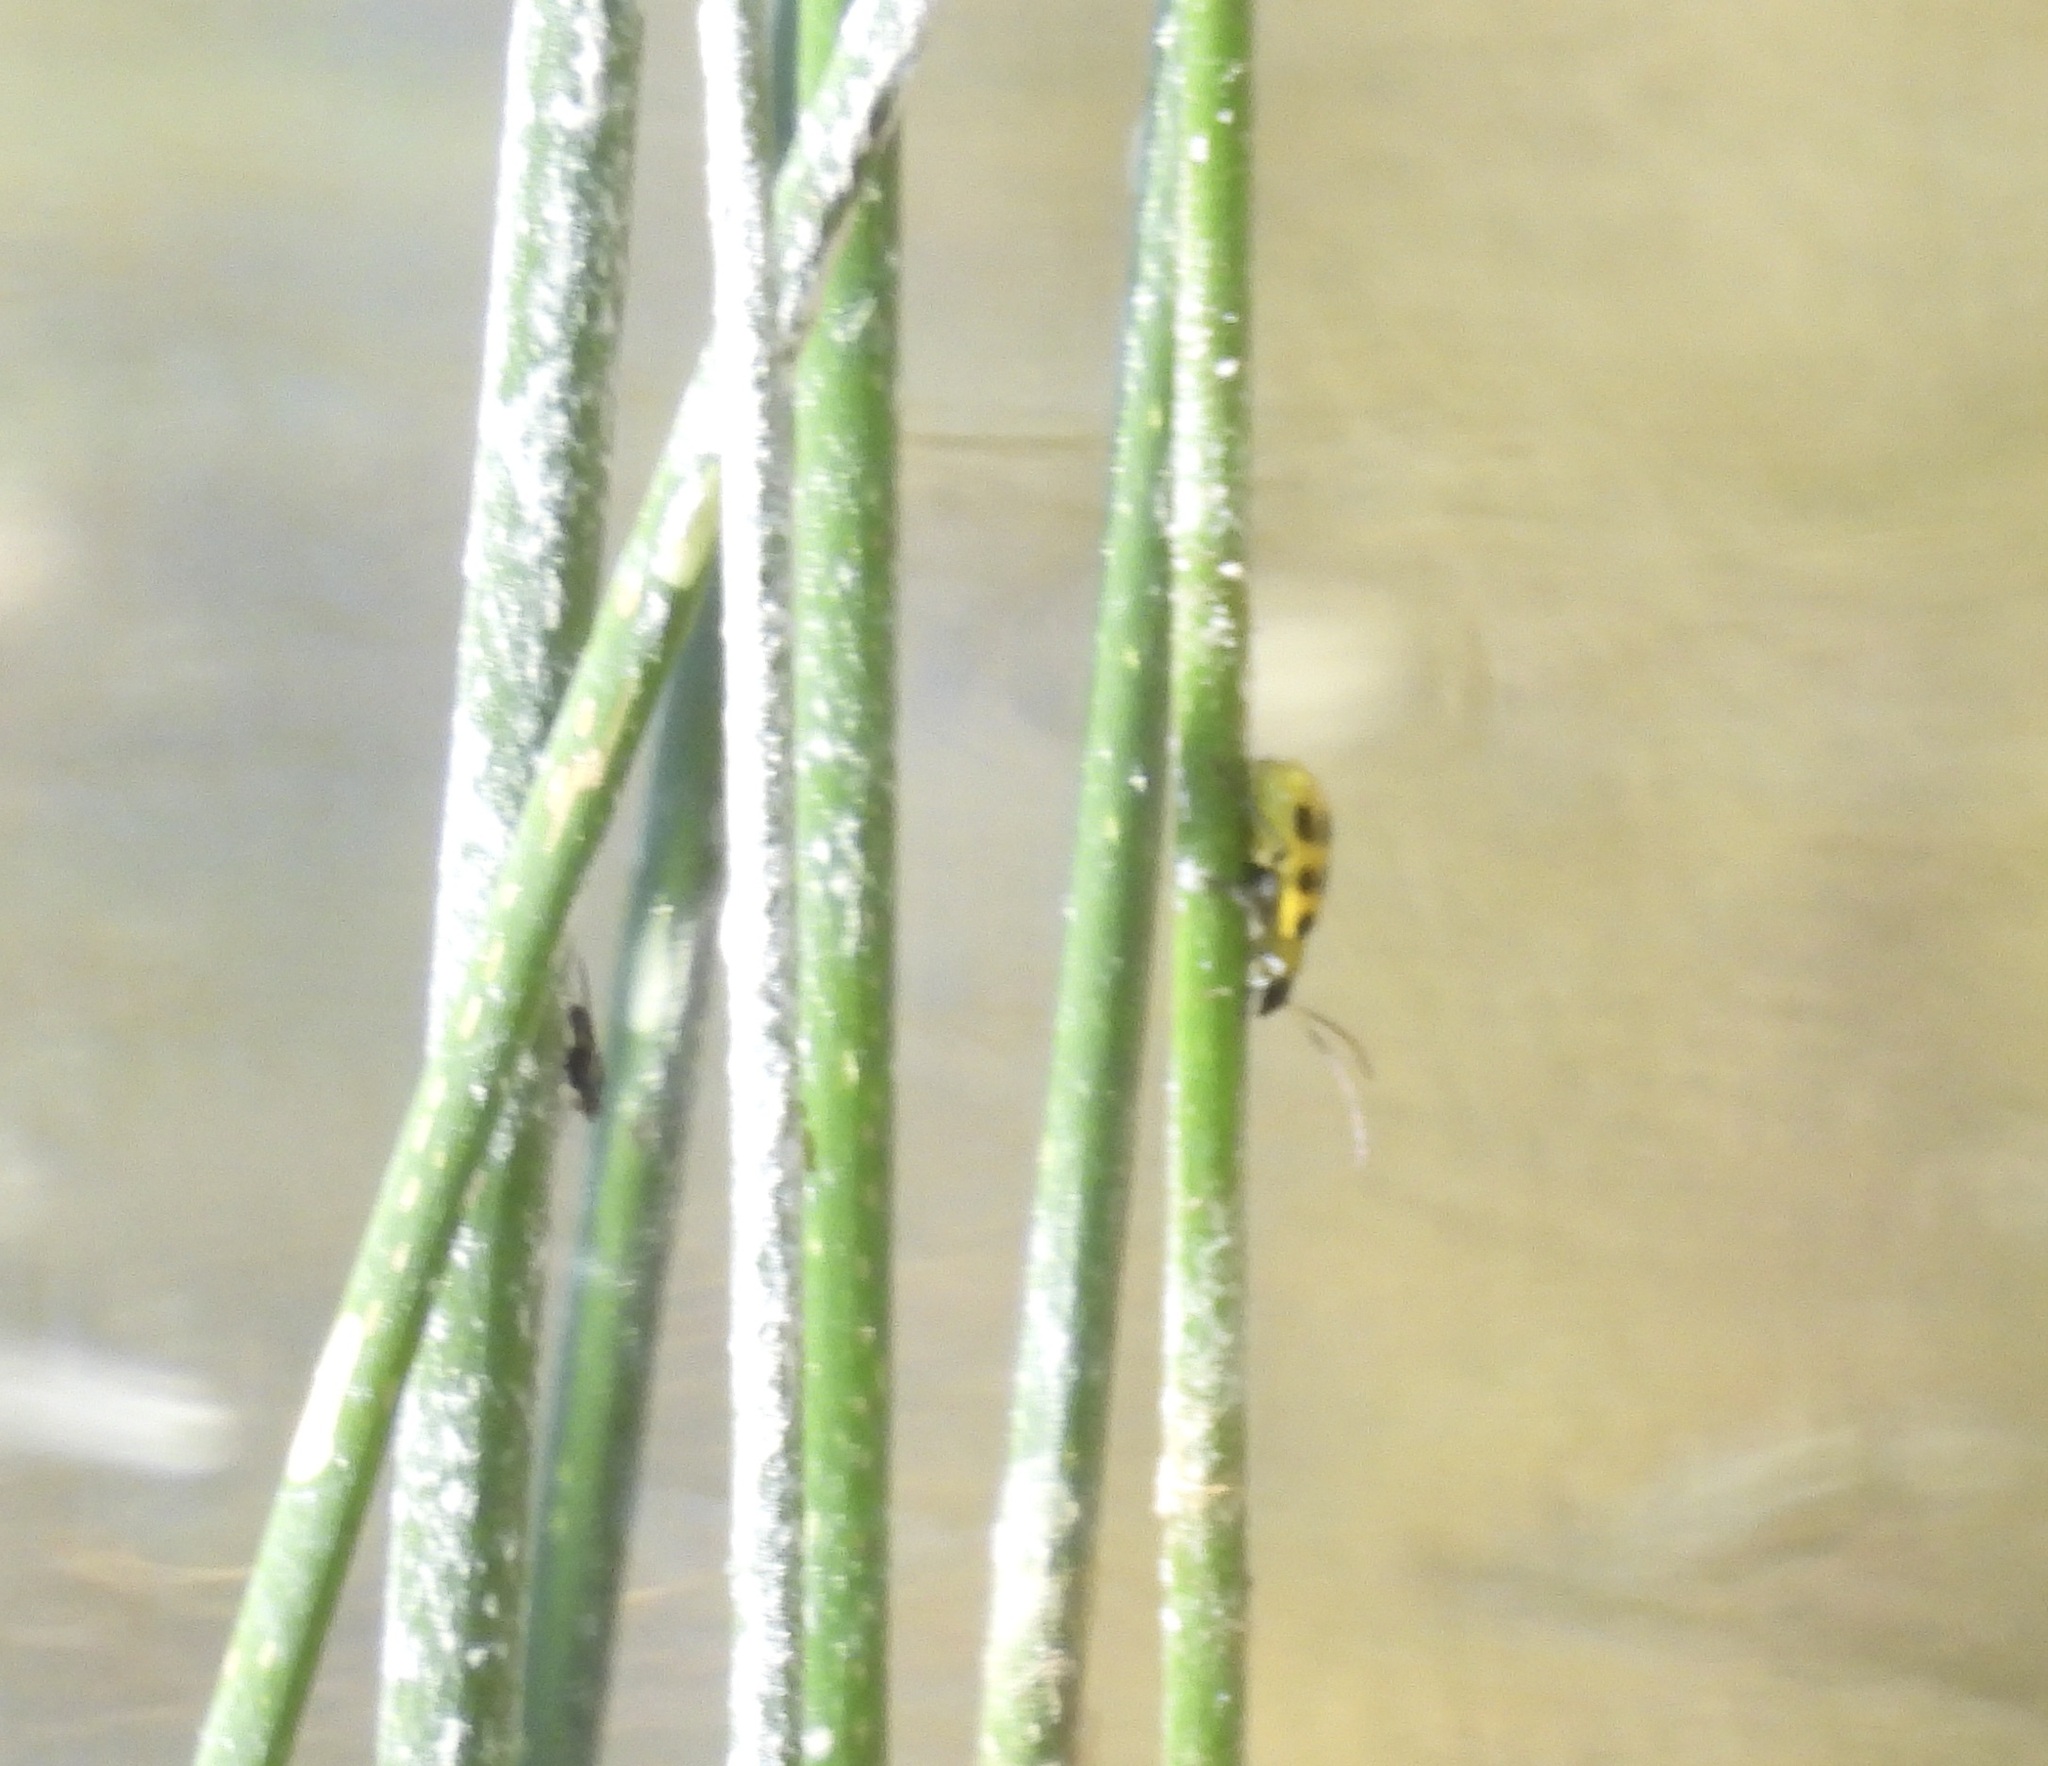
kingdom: Animalia
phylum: Arthropoda
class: Insecta
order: Coleoptera
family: Chrysomelidae
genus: Diabrotica
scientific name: Diabrotica undecimpunctata
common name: Spotted cucumber beetle
